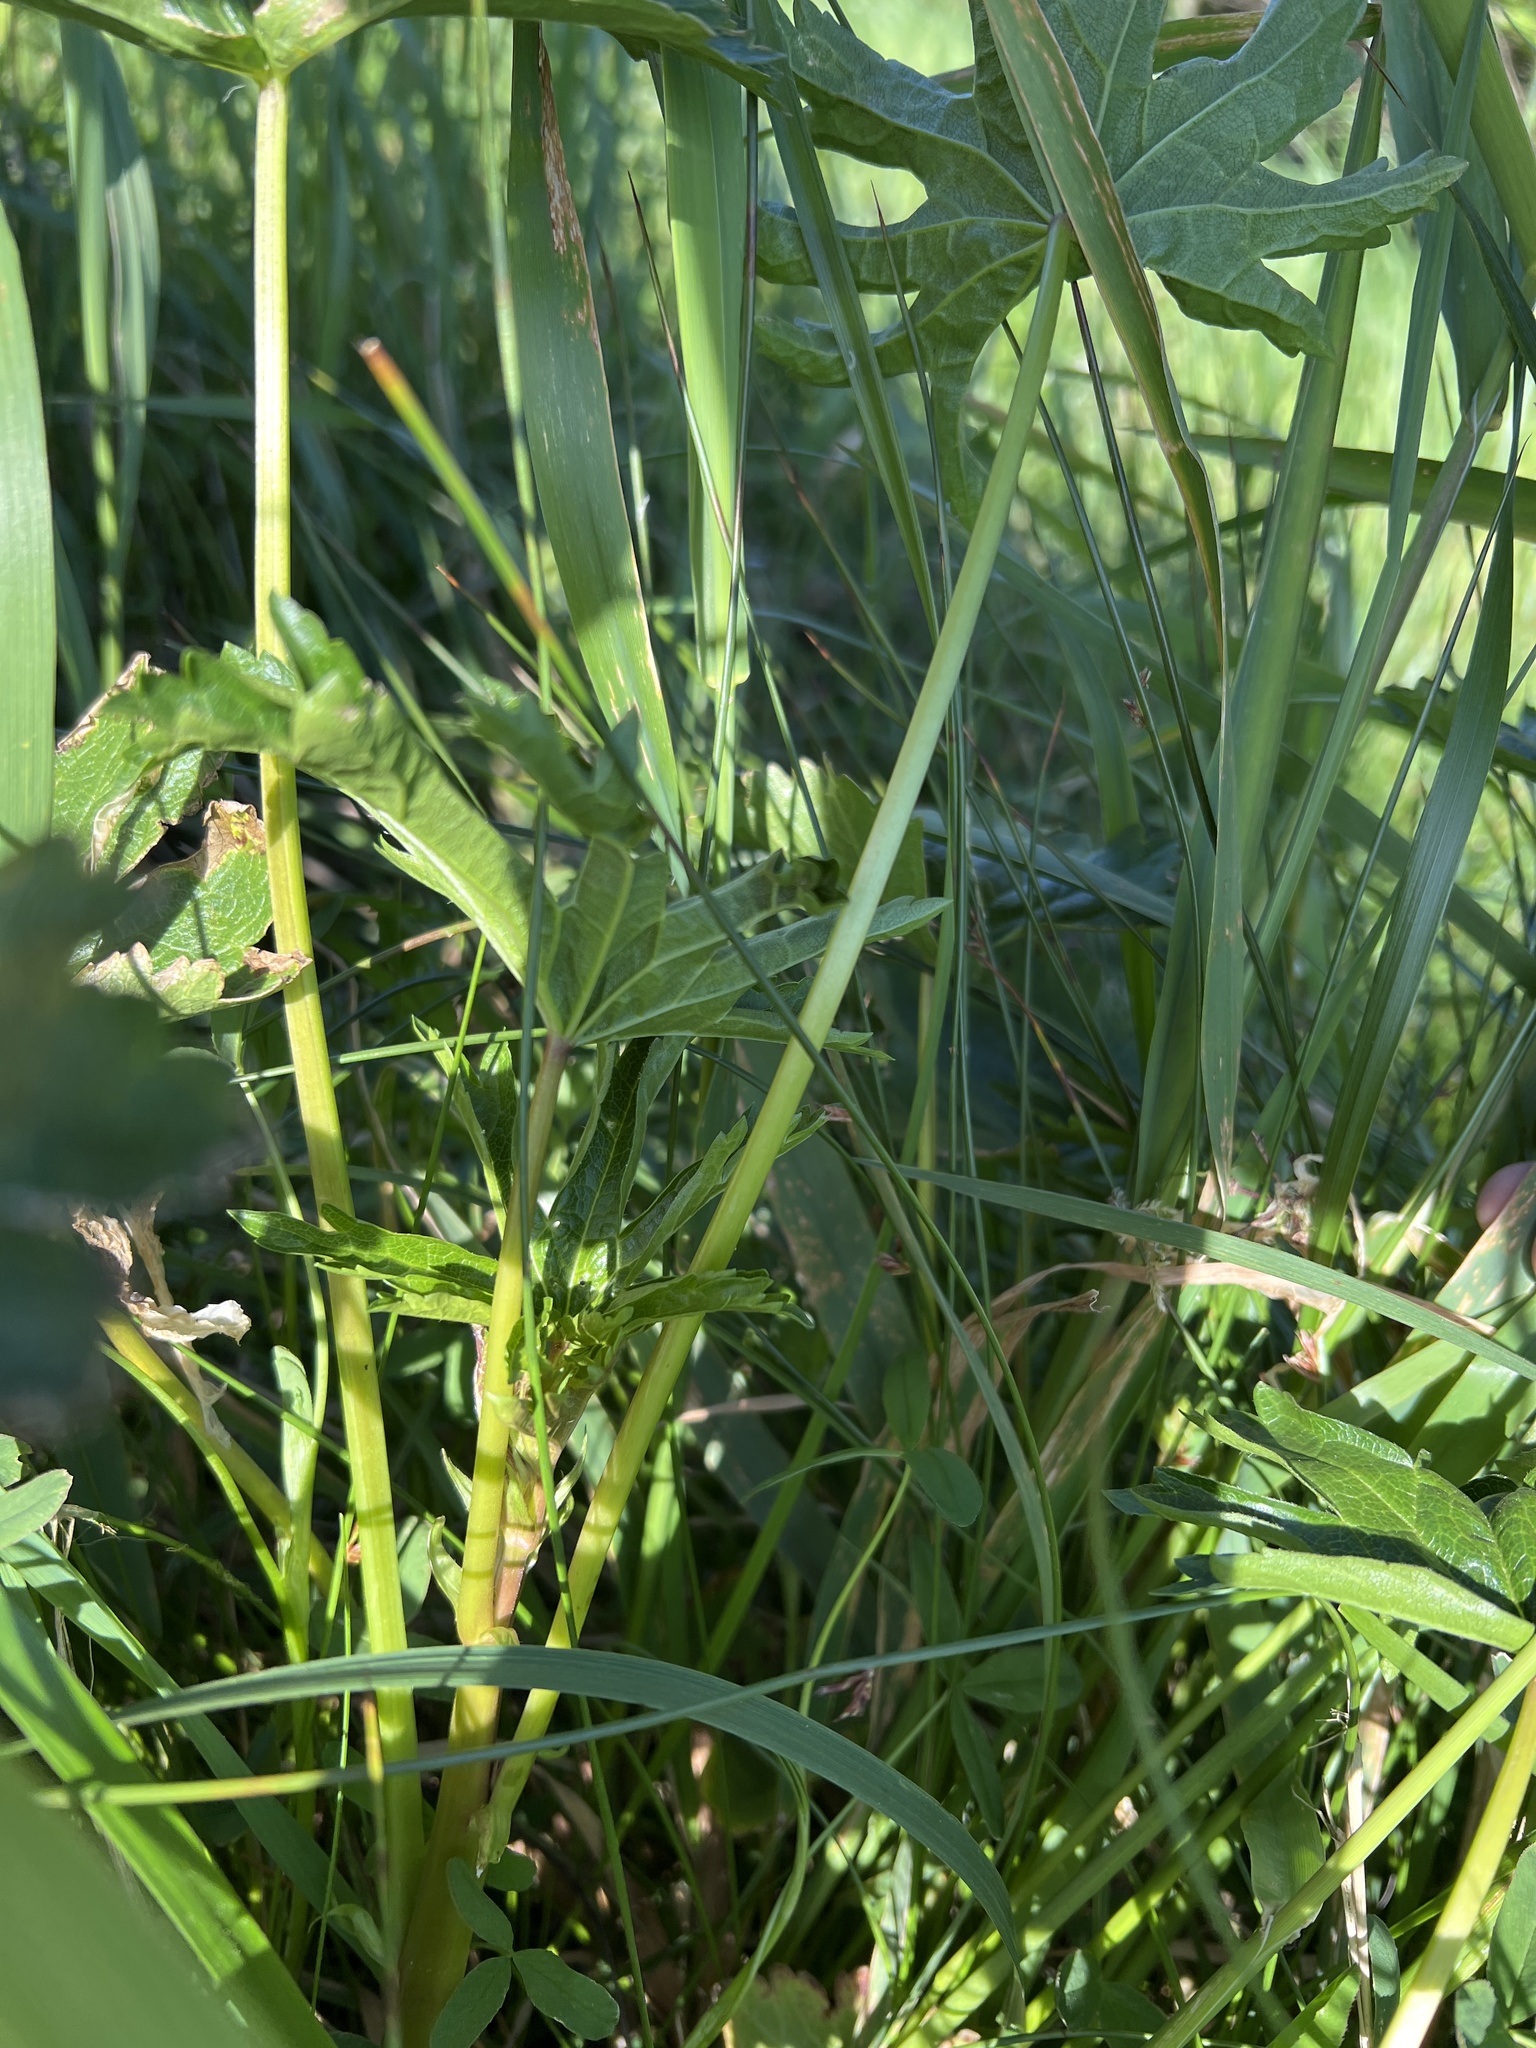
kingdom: Plantae
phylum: Tracheophyta
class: Magnoliopsida
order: Malvales
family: Malvaceae
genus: Sidalcea
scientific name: Sidalcea hendersonii
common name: Mallow
